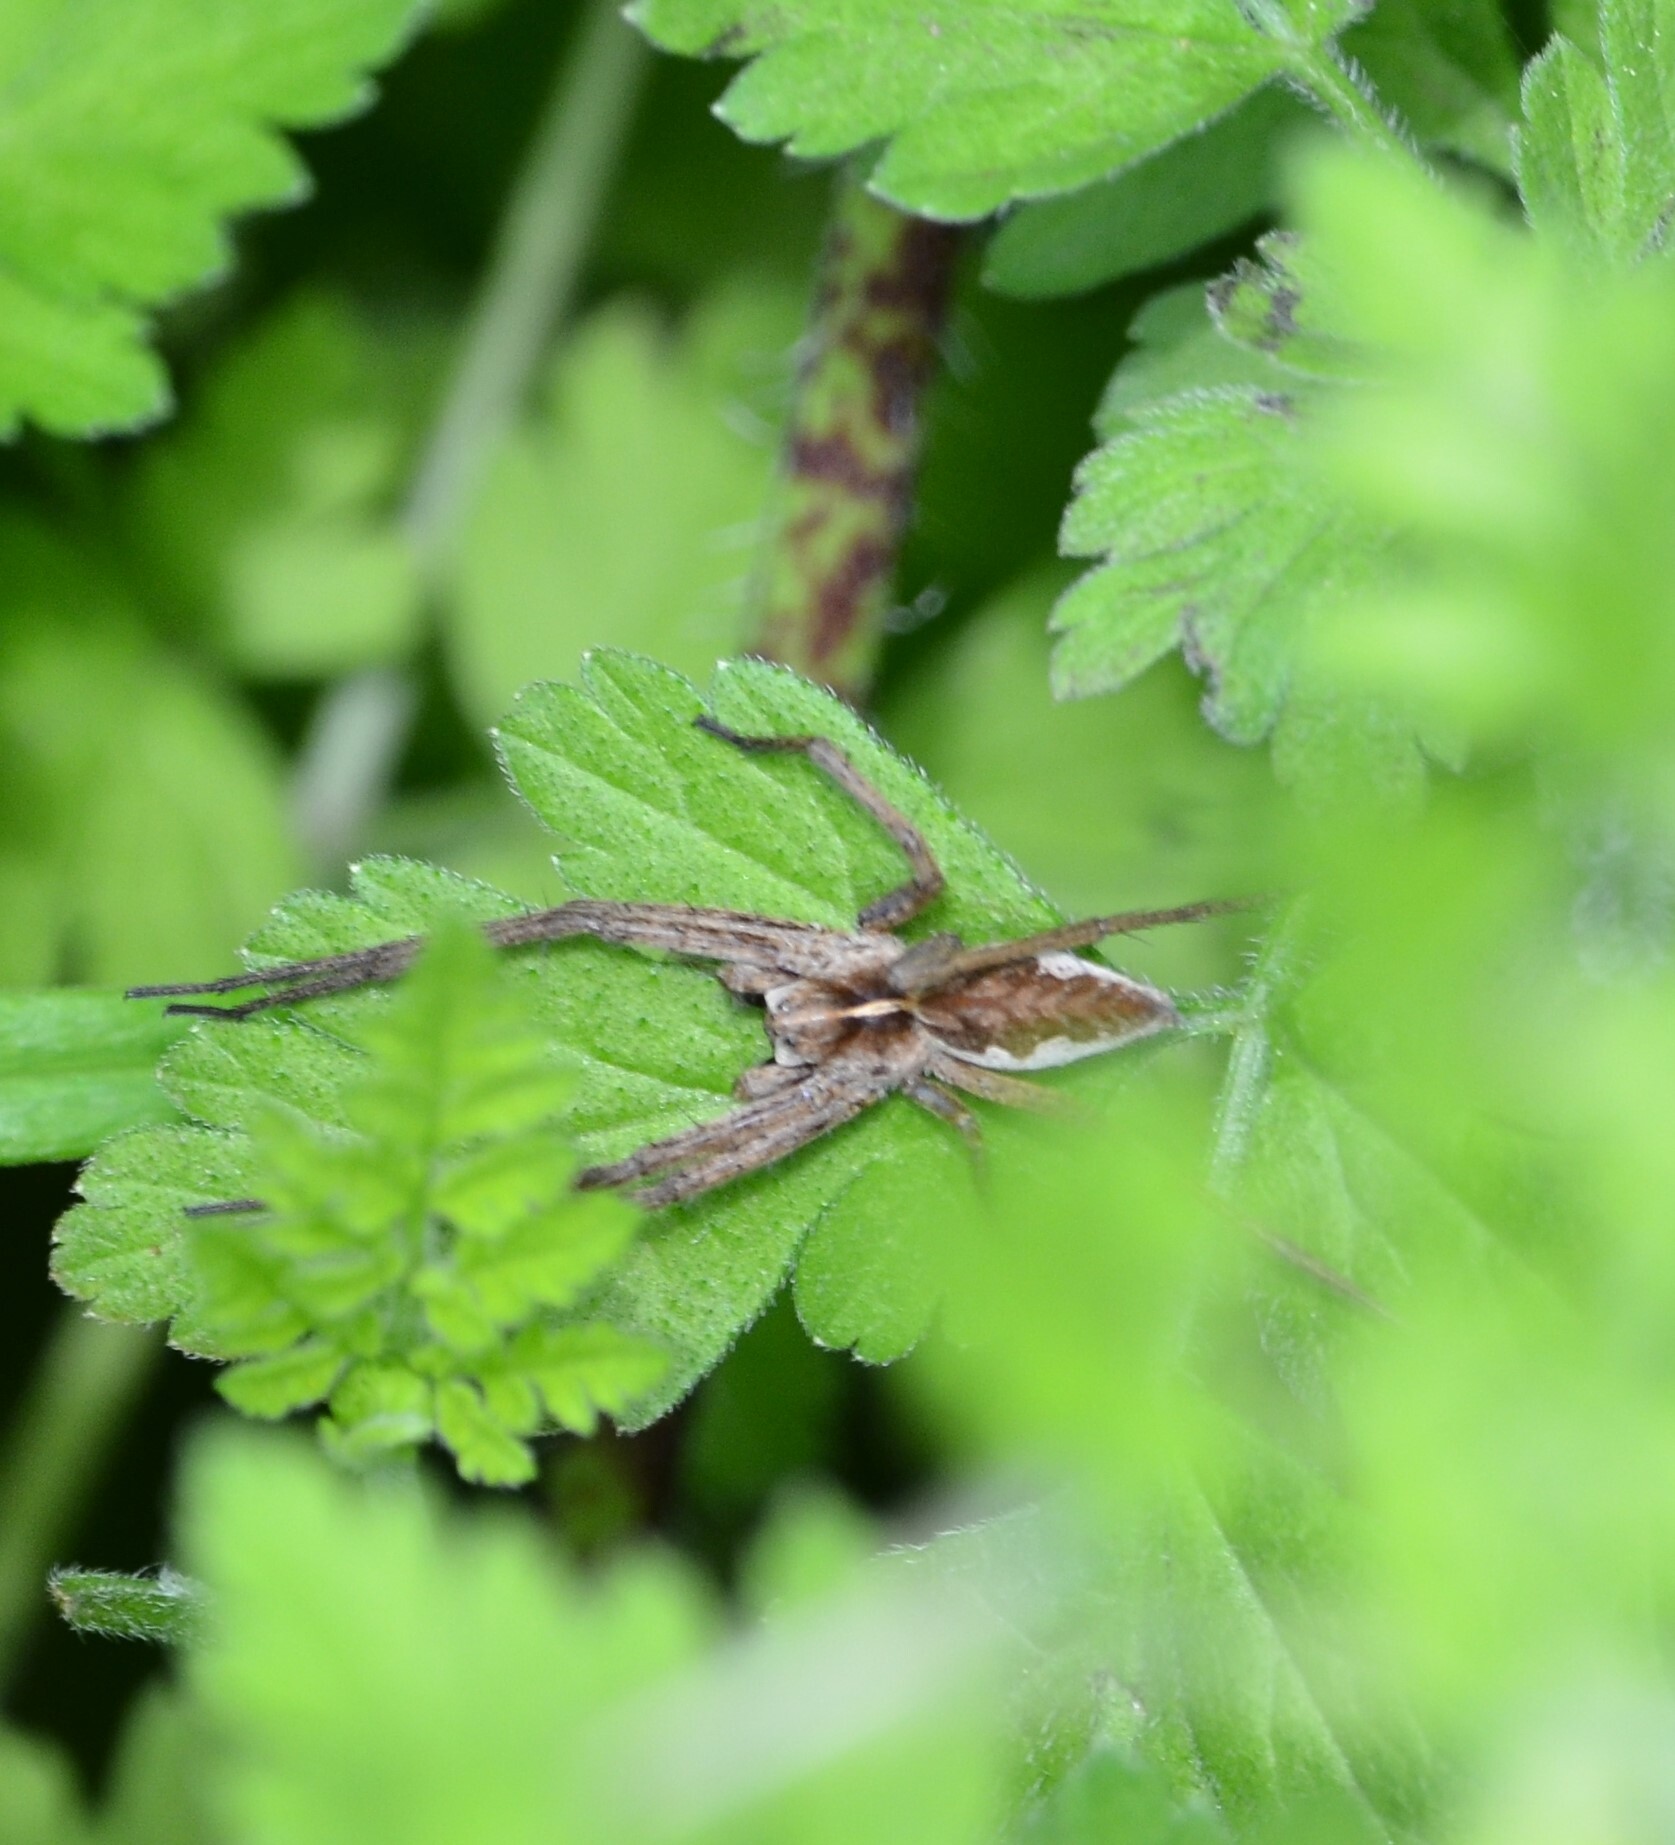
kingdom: Animalia
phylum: Arthropoda
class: Arachnida
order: Araneae
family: Pisauridae
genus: Pisaura
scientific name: Pisaura mirabilis
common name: Tent spider
